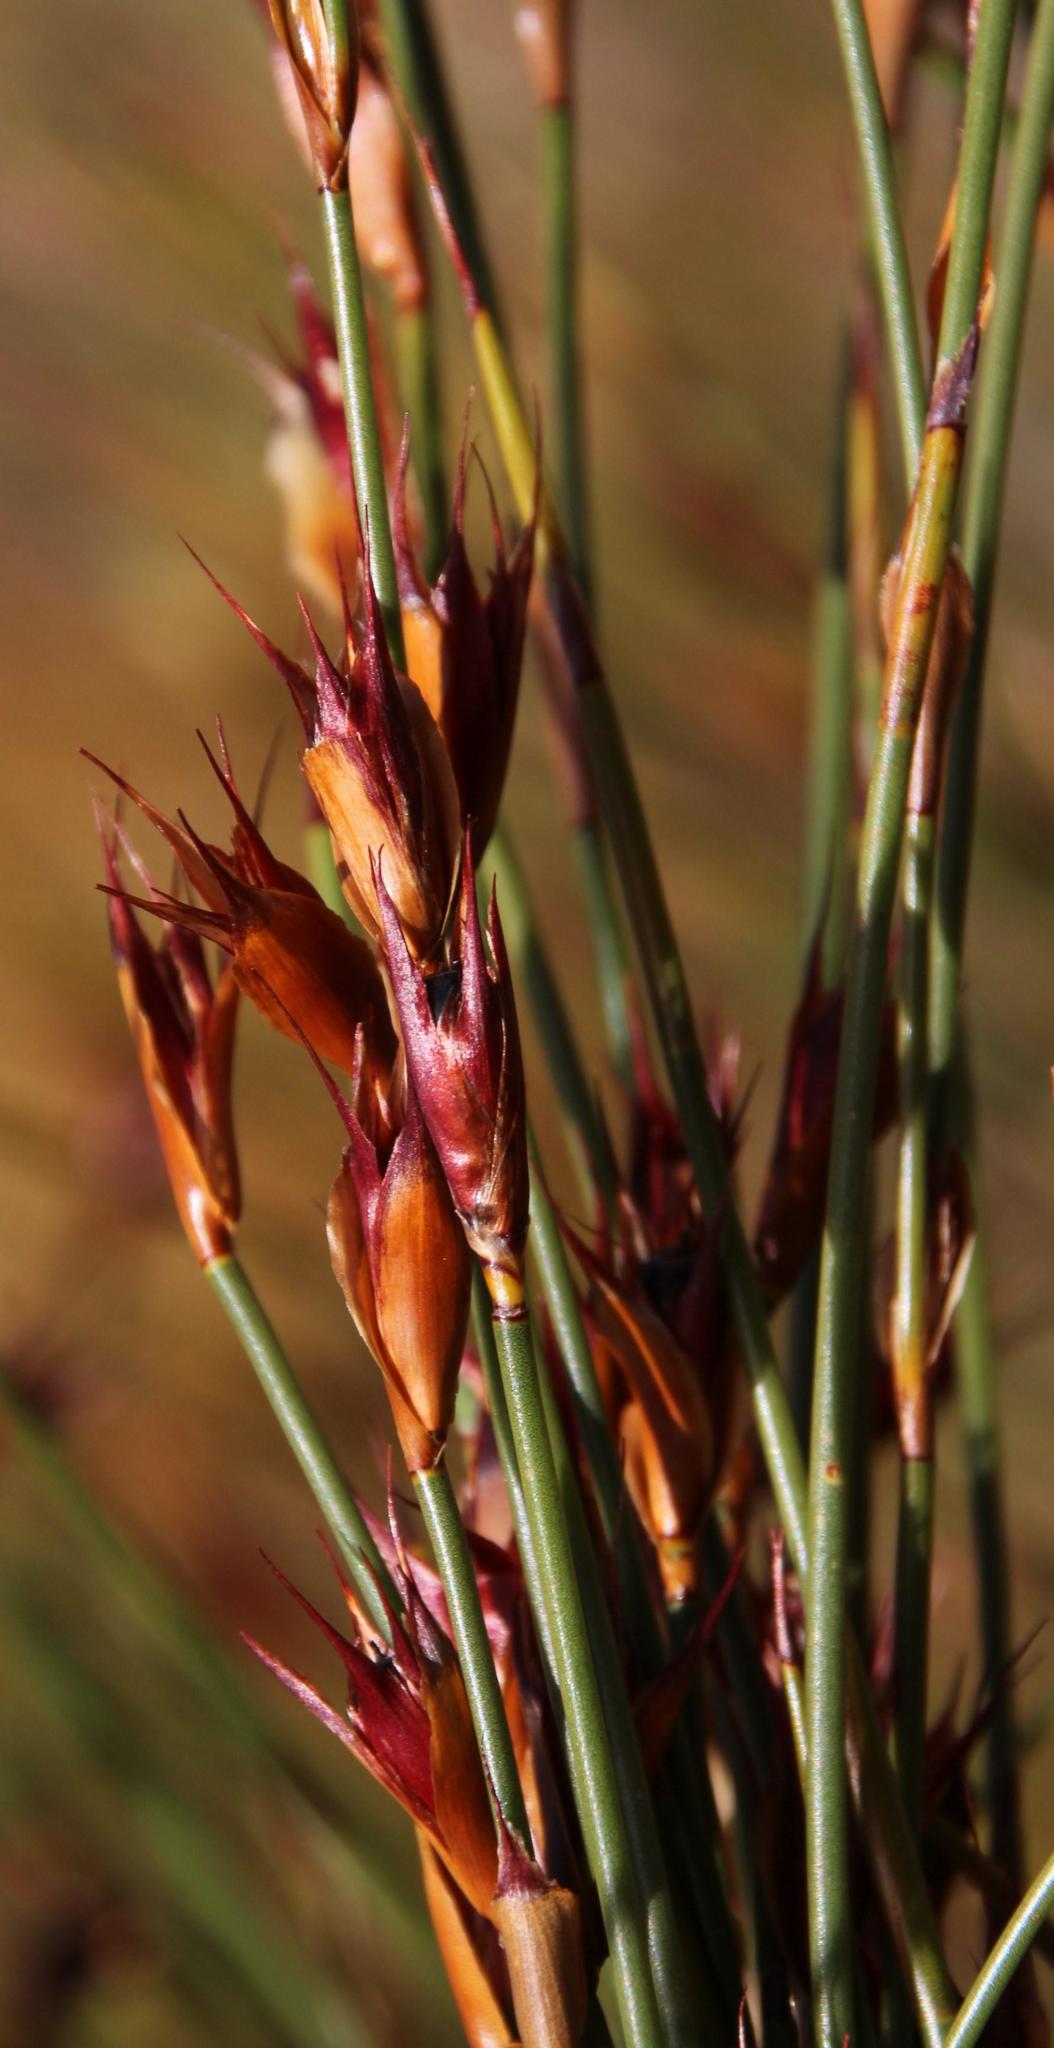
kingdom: Plantae
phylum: Tracheophyta
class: Liliopsida
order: Poales
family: Restionaceae
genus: Willdenowia
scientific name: Willdenowia teres
